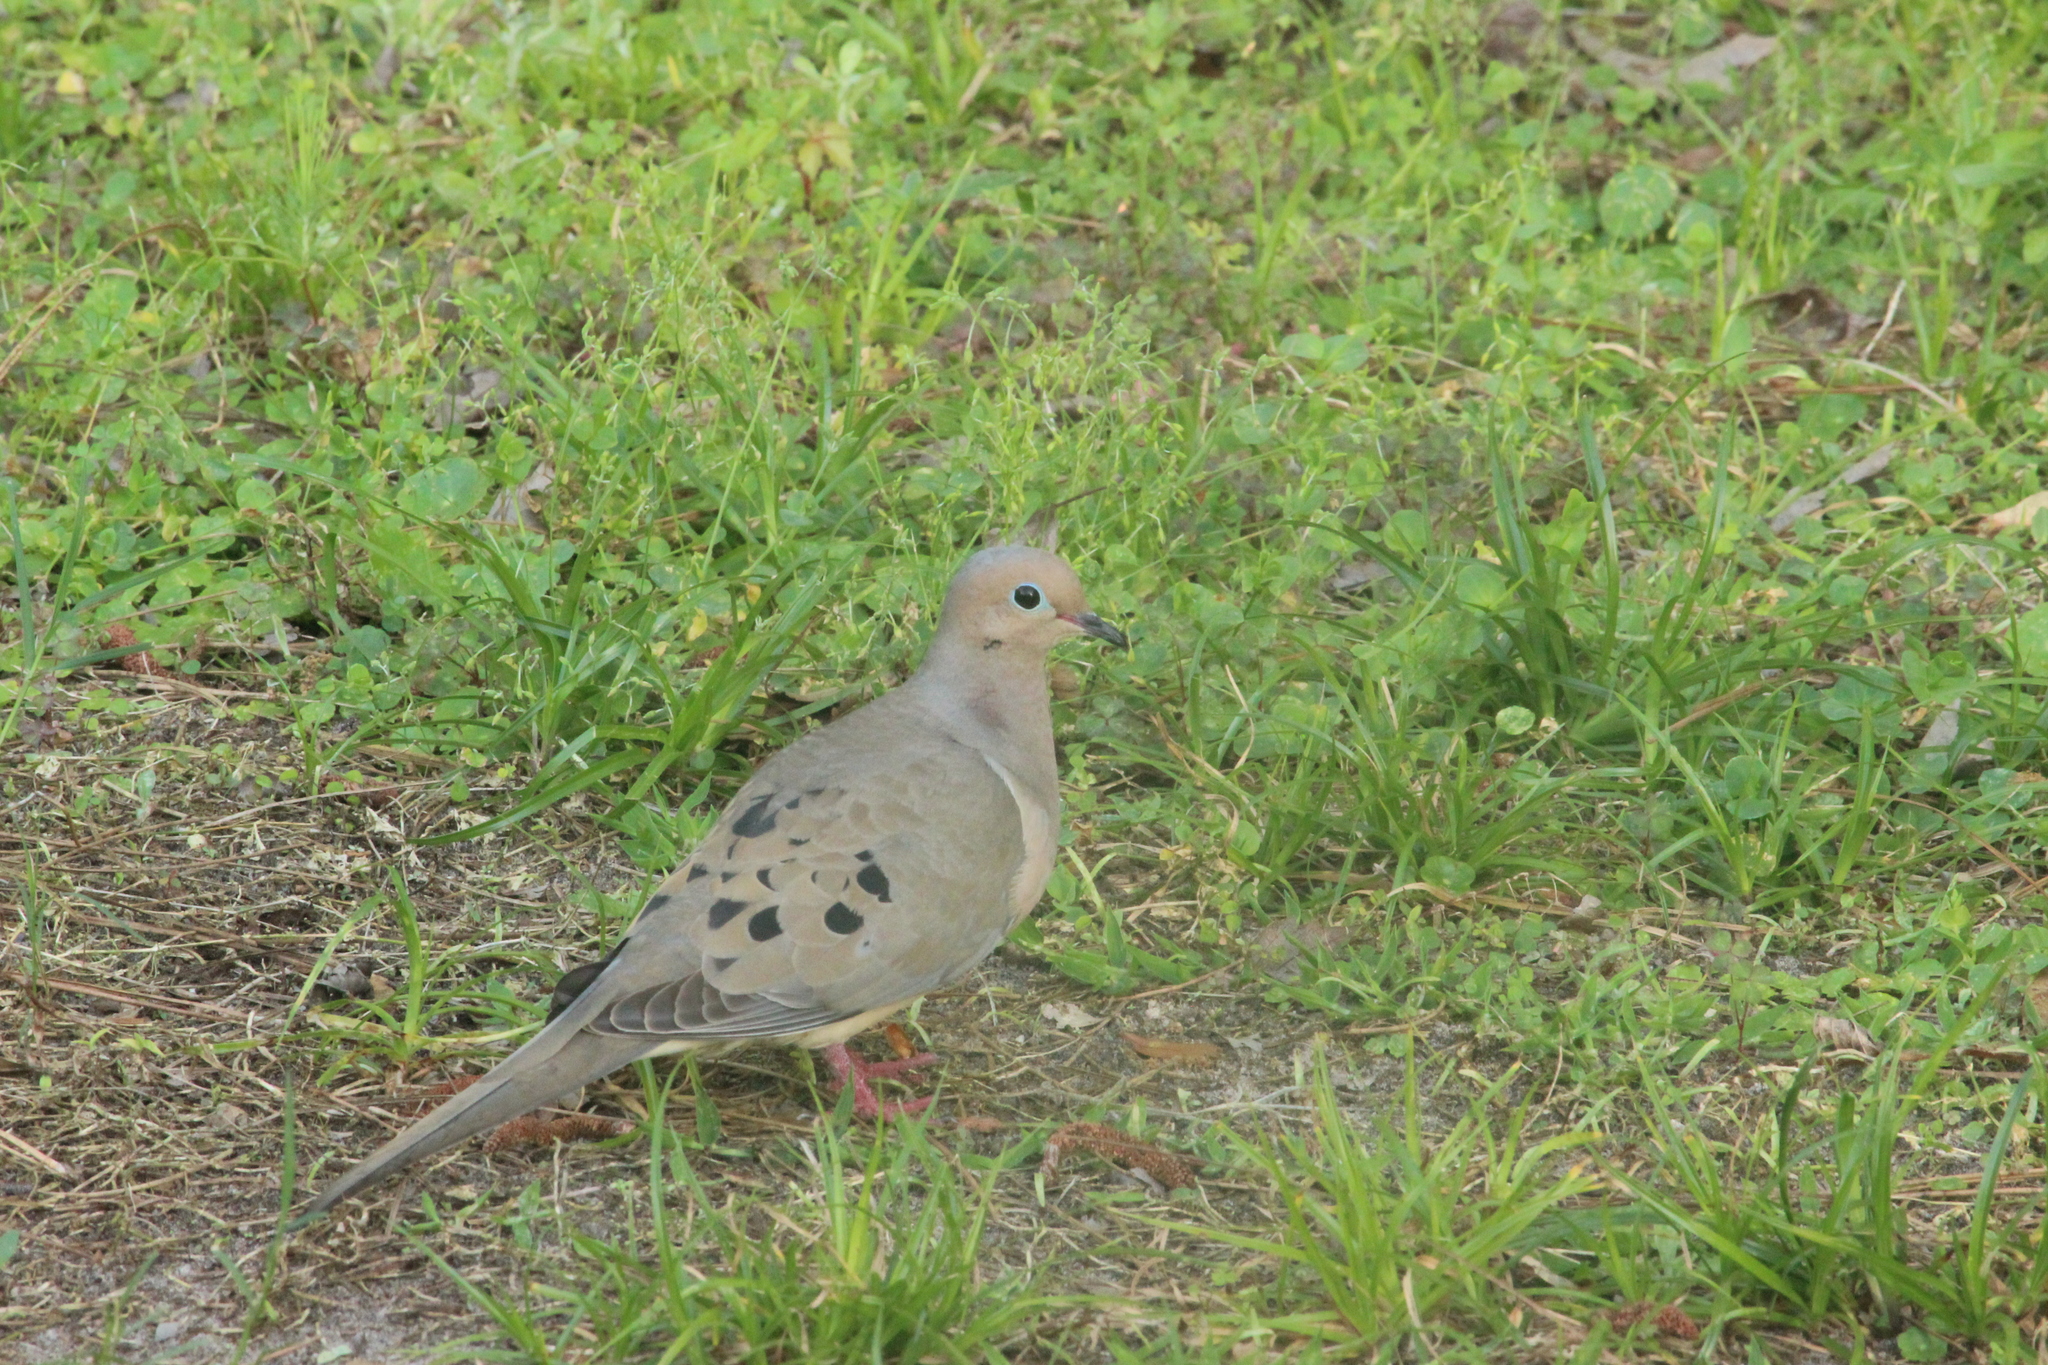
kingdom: Animalia
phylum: Chordata
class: Aves
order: Columbiformes
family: Columbidae
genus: Zenaida
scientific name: Zenaida macroura
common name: Mourning dove
